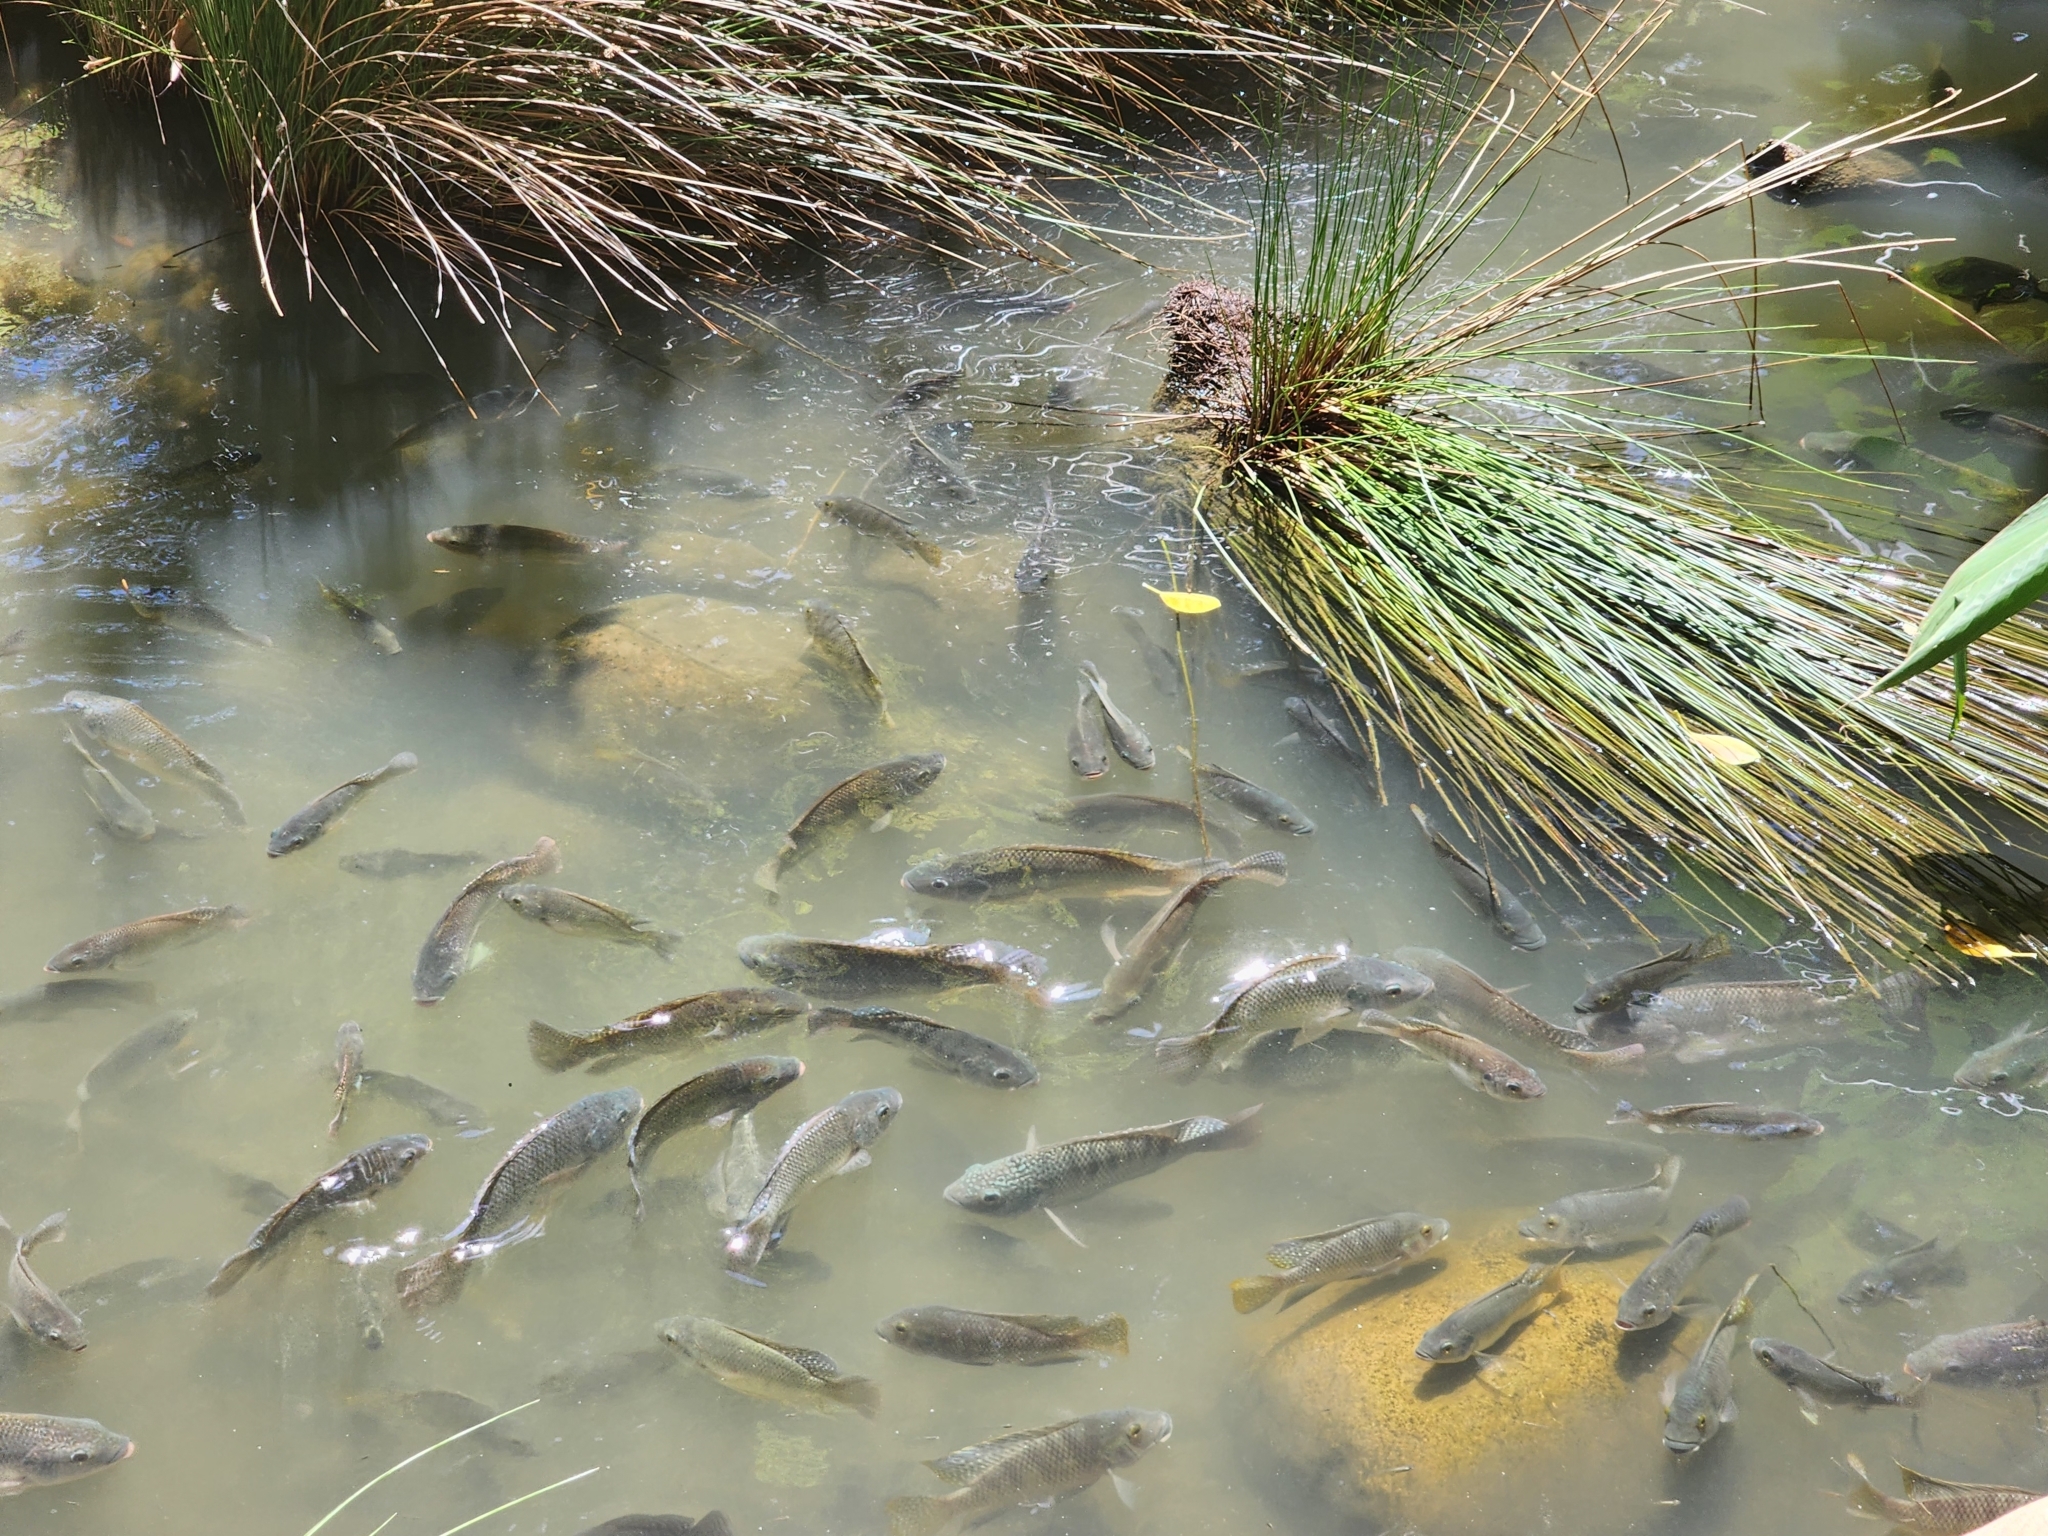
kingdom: Animalia
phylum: Chordata
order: Perciformes
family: Cichlidae
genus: Oreochromis
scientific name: Oreochromis mossambicus
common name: Mozambique tilapia
